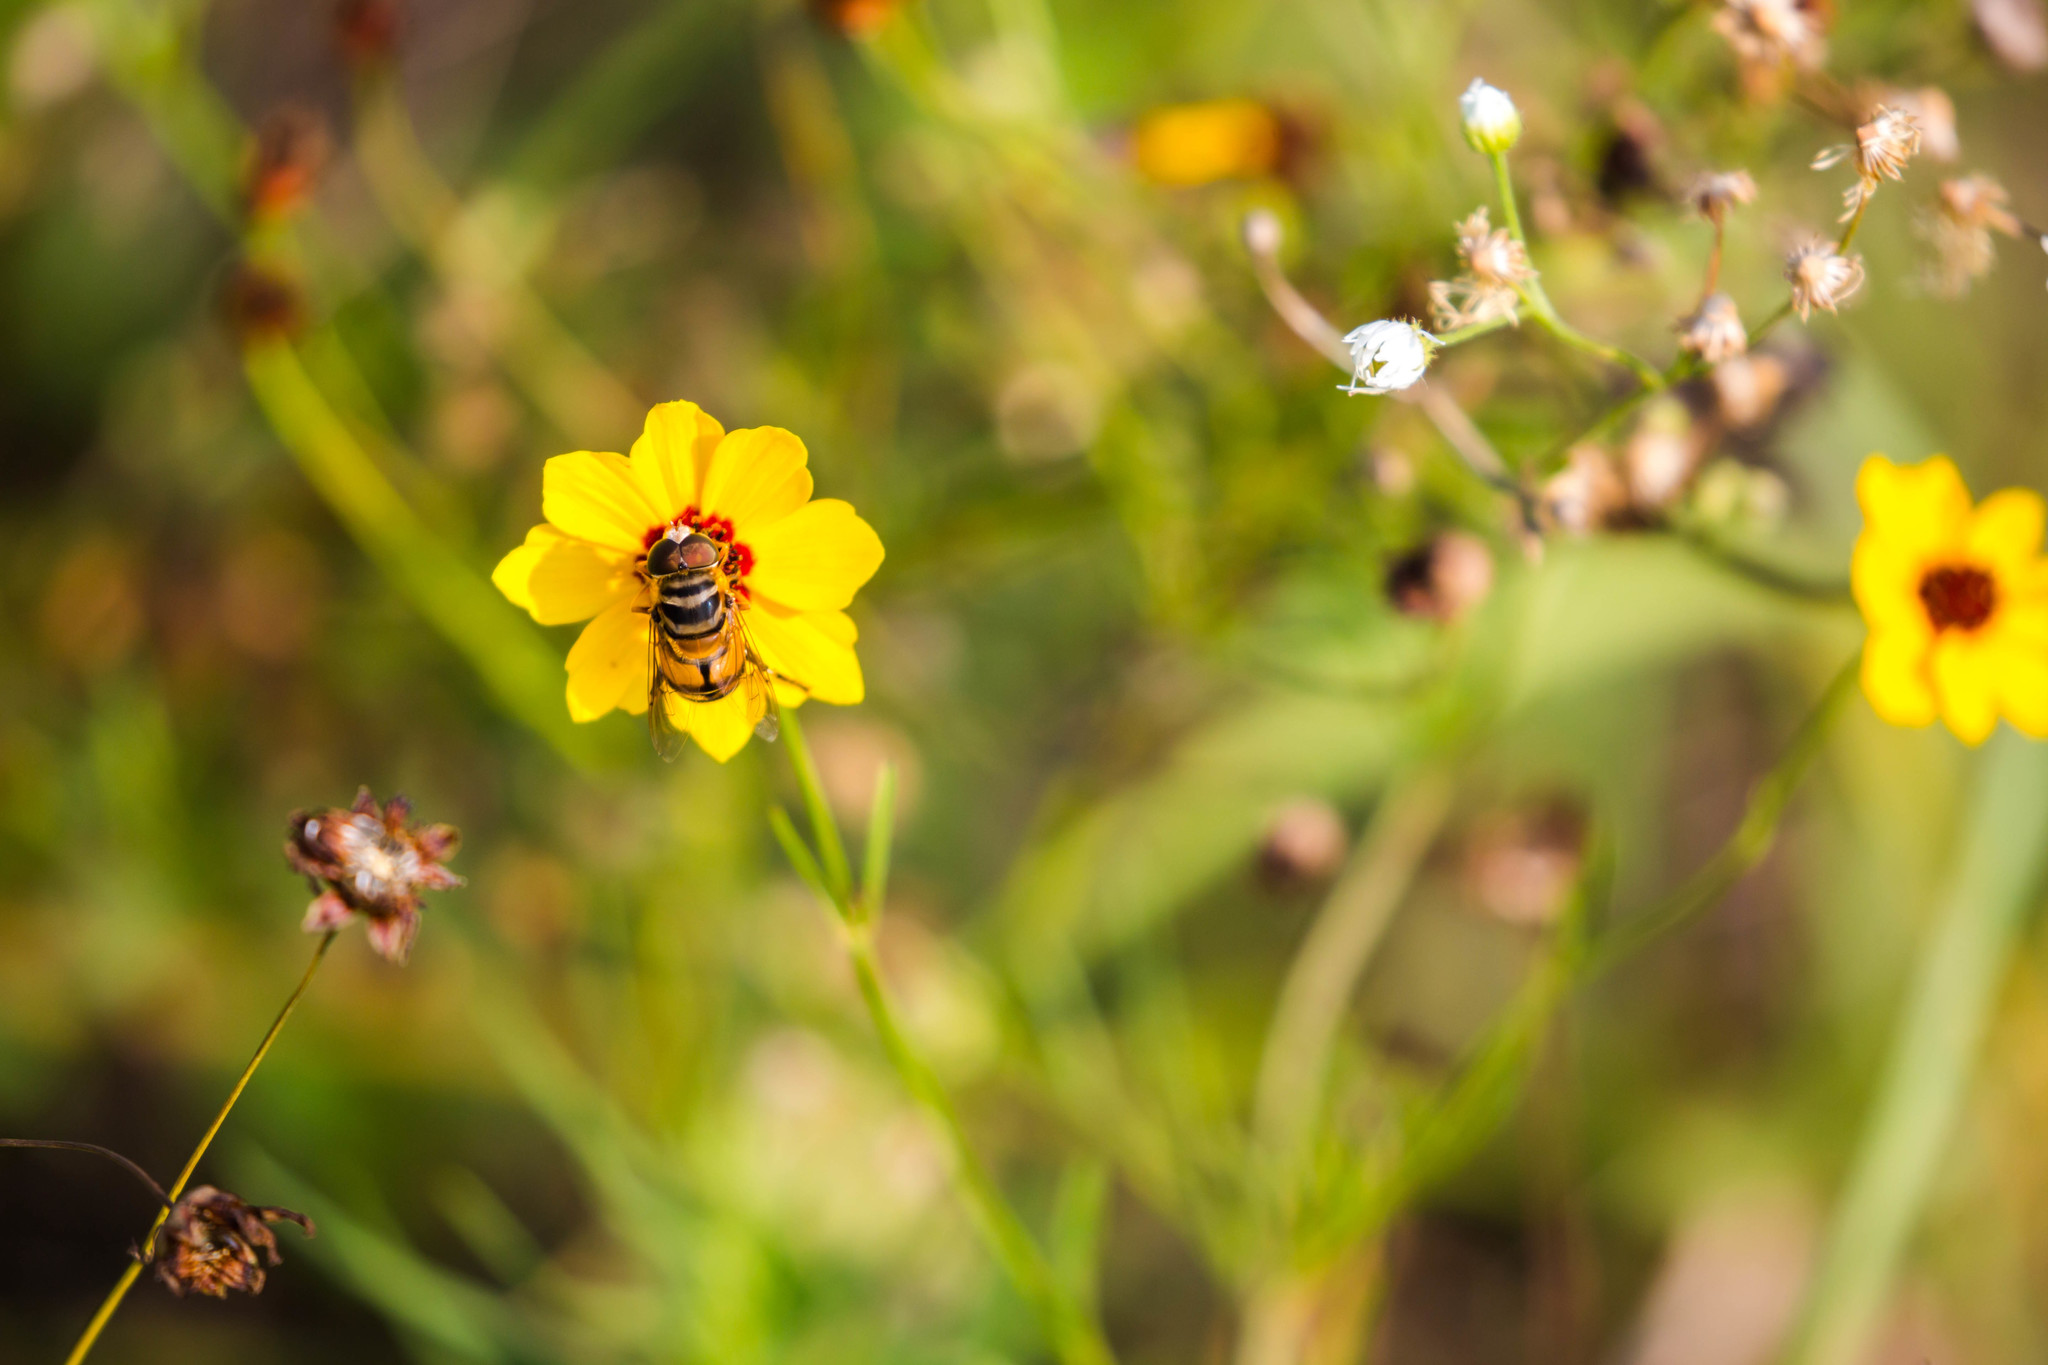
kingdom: Animalia
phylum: Arthropoda
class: Insecta
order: Diptera
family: Syrphidae
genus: Palpada
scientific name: Palpada vinetorum
